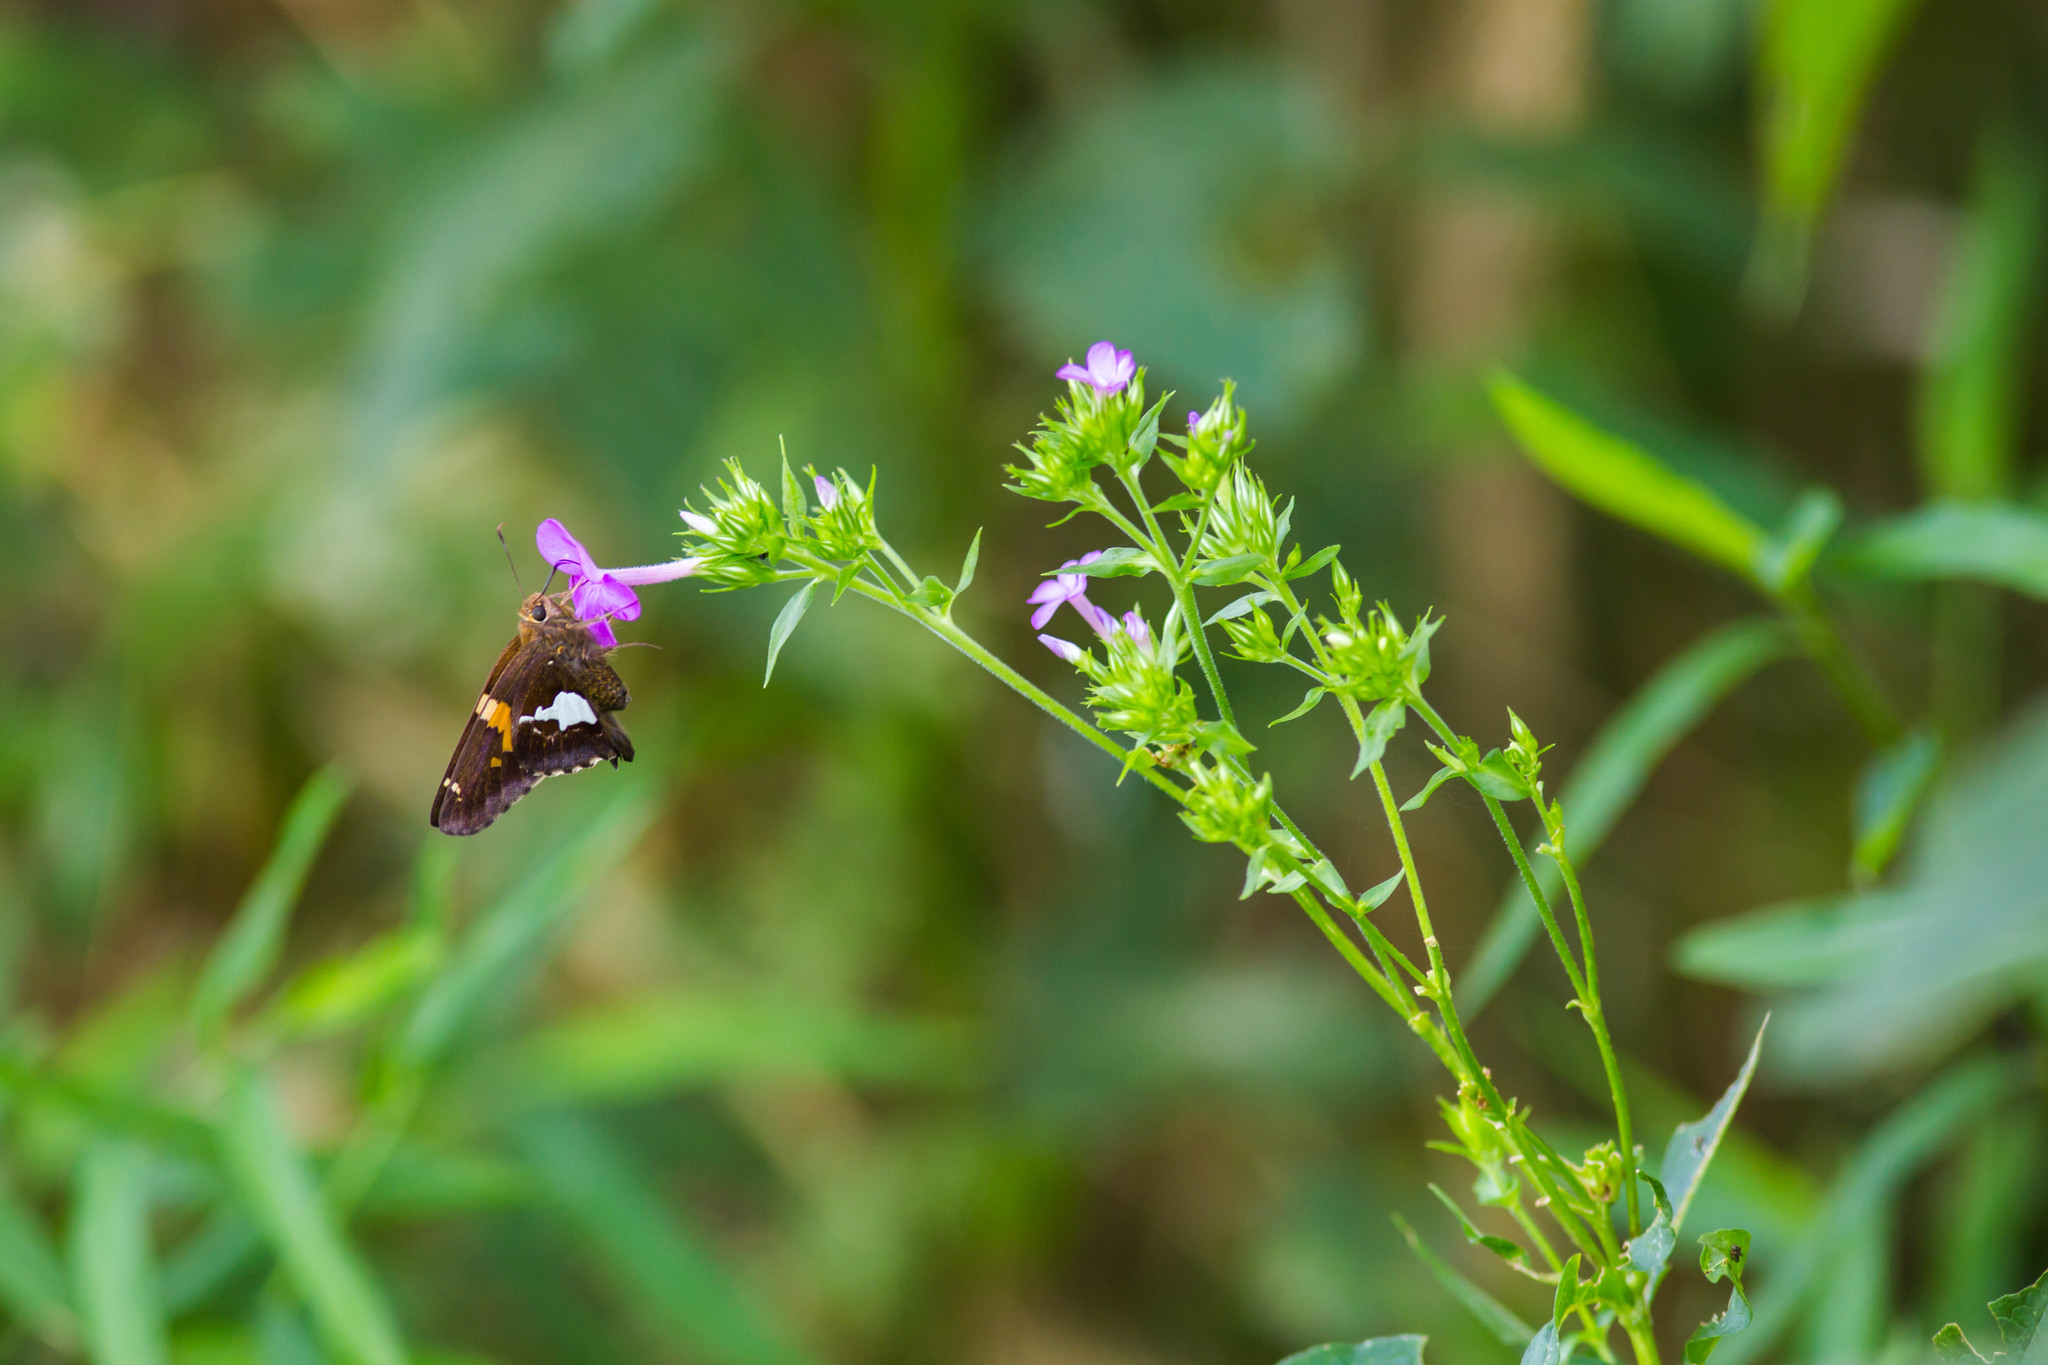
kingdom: Animalia
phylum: Arthropoda
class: Insecta
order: Lepidoptera
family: Hesperiidae
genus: Epargyreus
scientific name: Epargyreus clarus
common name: Silver-spotted skipper
